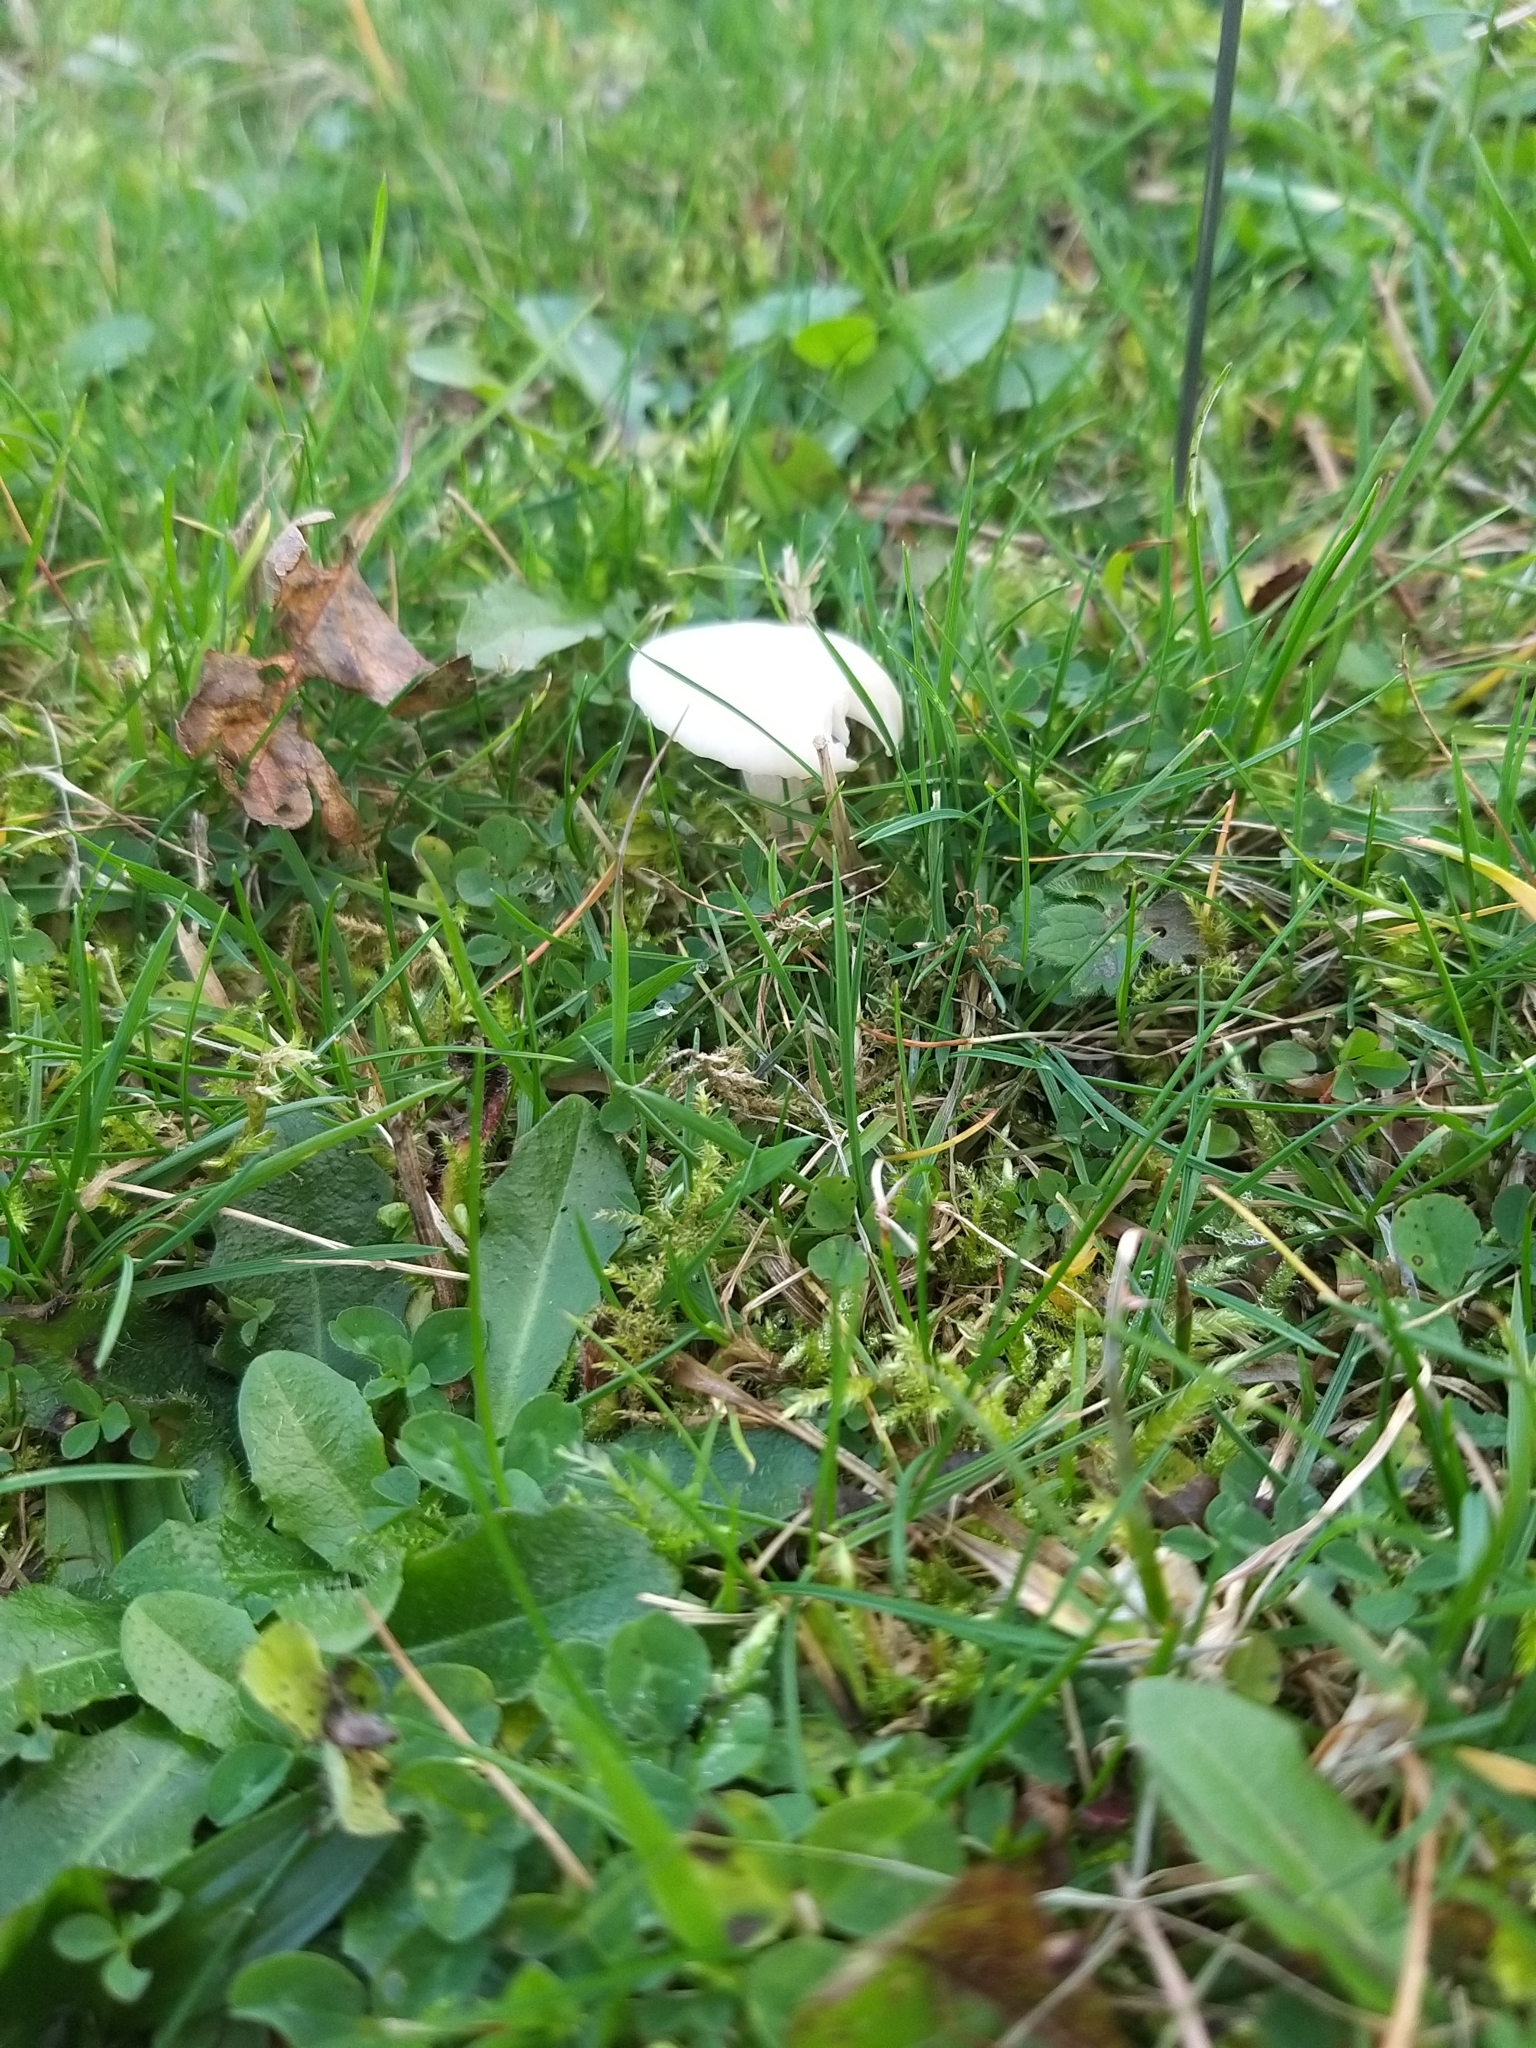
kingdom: Fungi
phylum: Basidiomycota
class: Agaricomycetes
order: Agaricales
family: Hygrophoraceae
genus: Cuphophyllus
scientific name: Cuphophyllus virgineus
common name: Snowy waxcap
